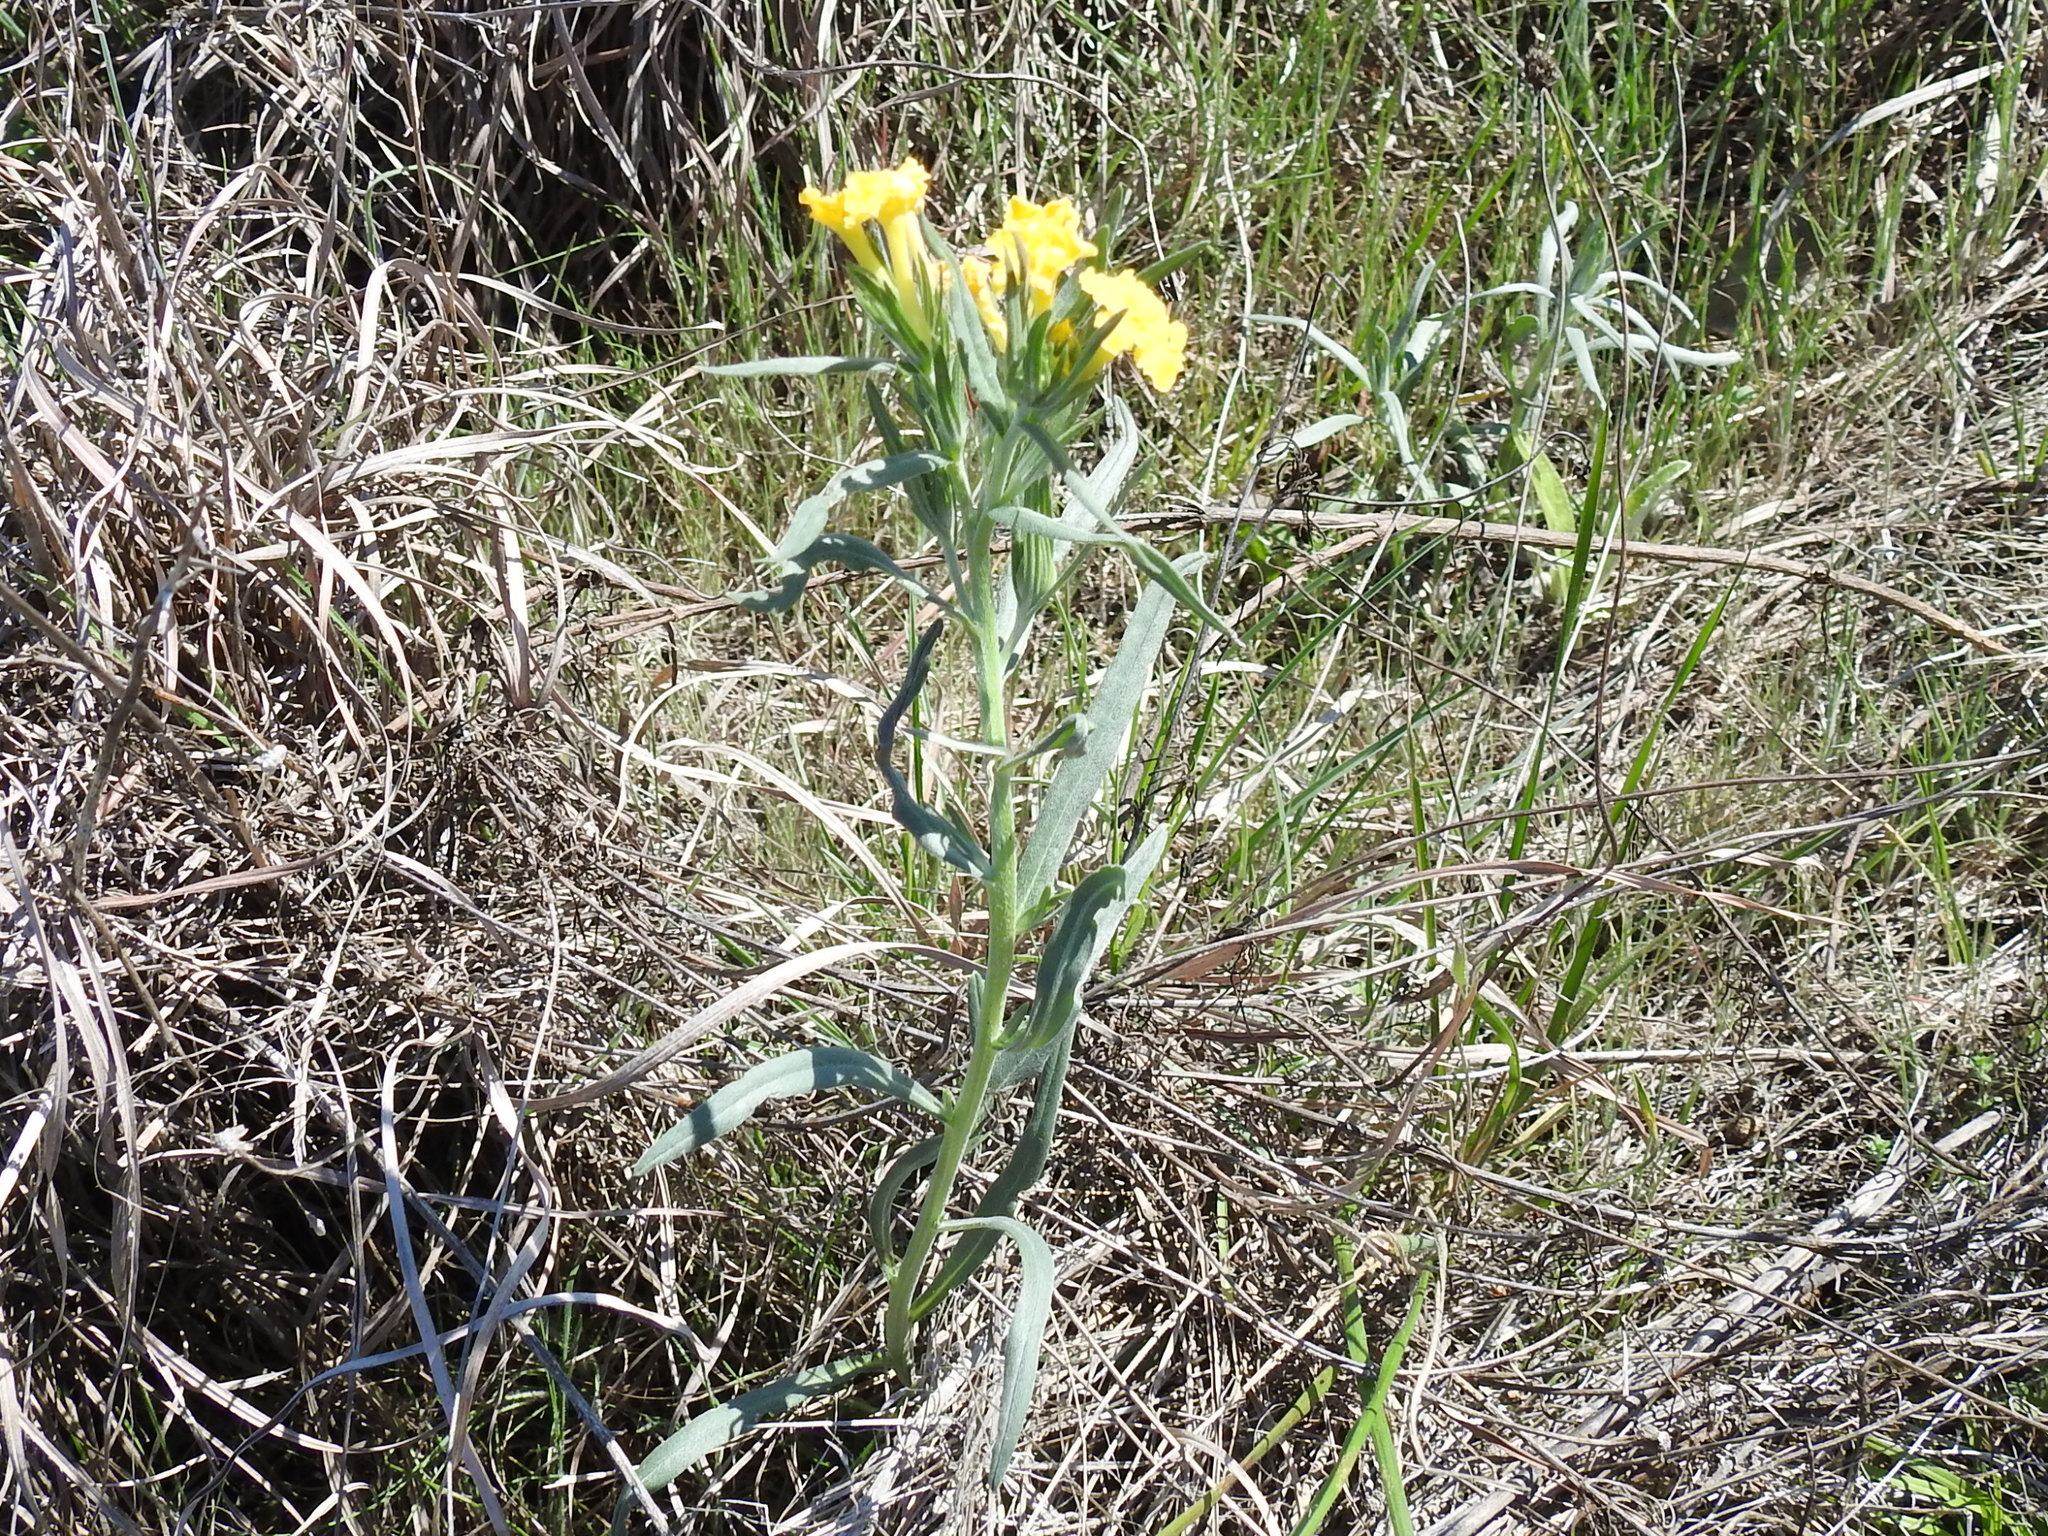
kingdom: Plantae
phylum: Tracheophyta
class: Magnoliopsida
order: Boraginales
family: Boraginaceae
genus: Lithospermum
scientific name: Lithospermum incisum
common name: Fringed gromwell
